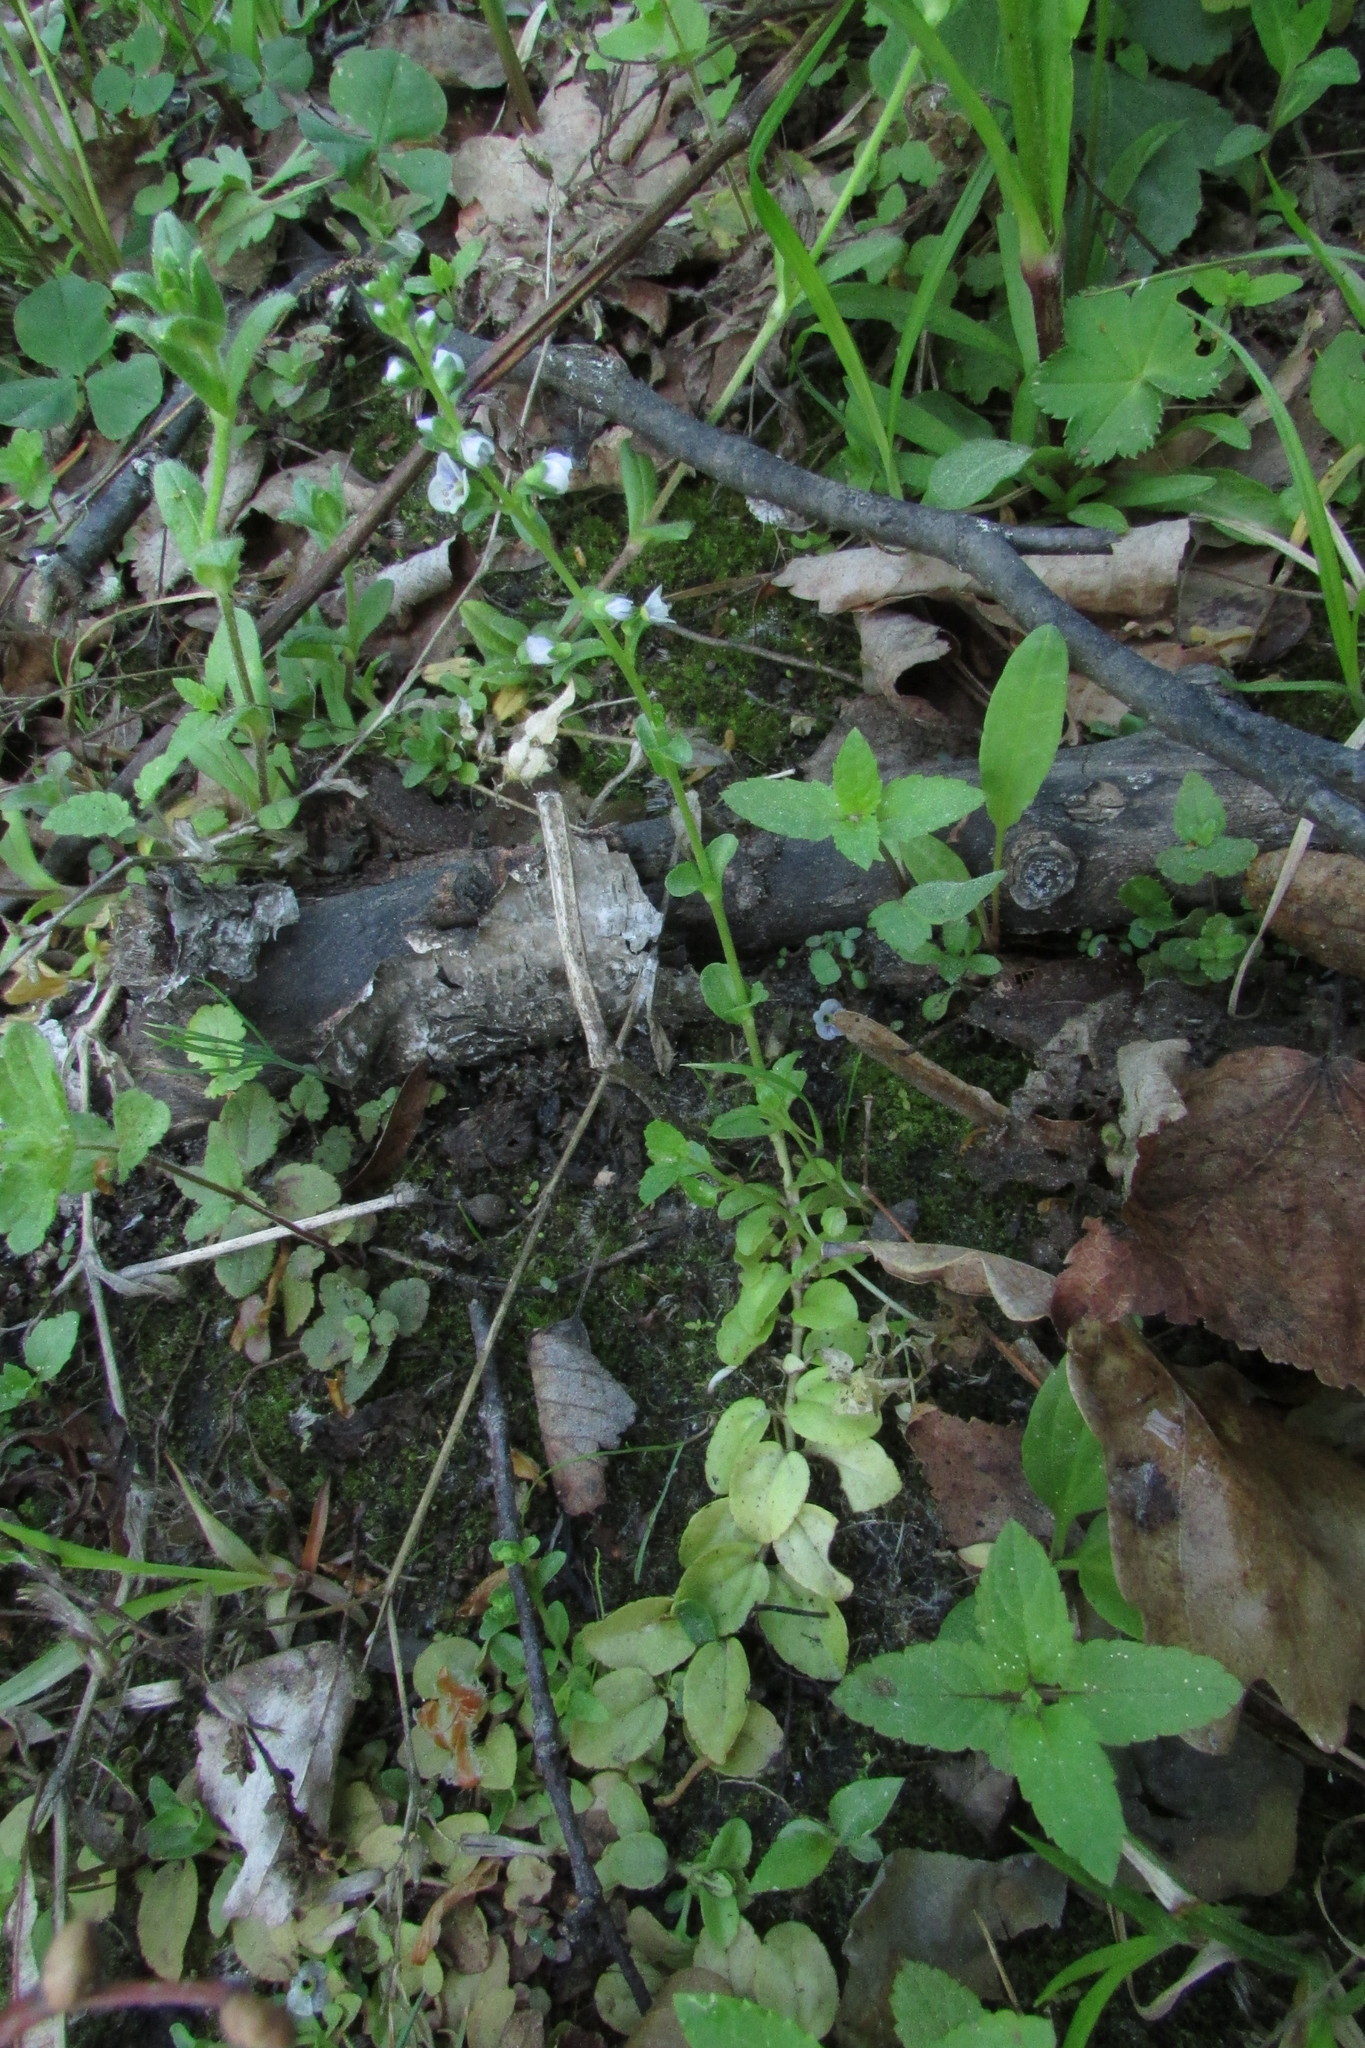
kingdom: Plantae
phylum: Tracheophyta
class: Magnoliopsida
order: Lamiales
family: Plantaginaceae
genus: Veronica
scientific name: Veronica serpyllifolia
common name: Thyme-leaved speedwell
